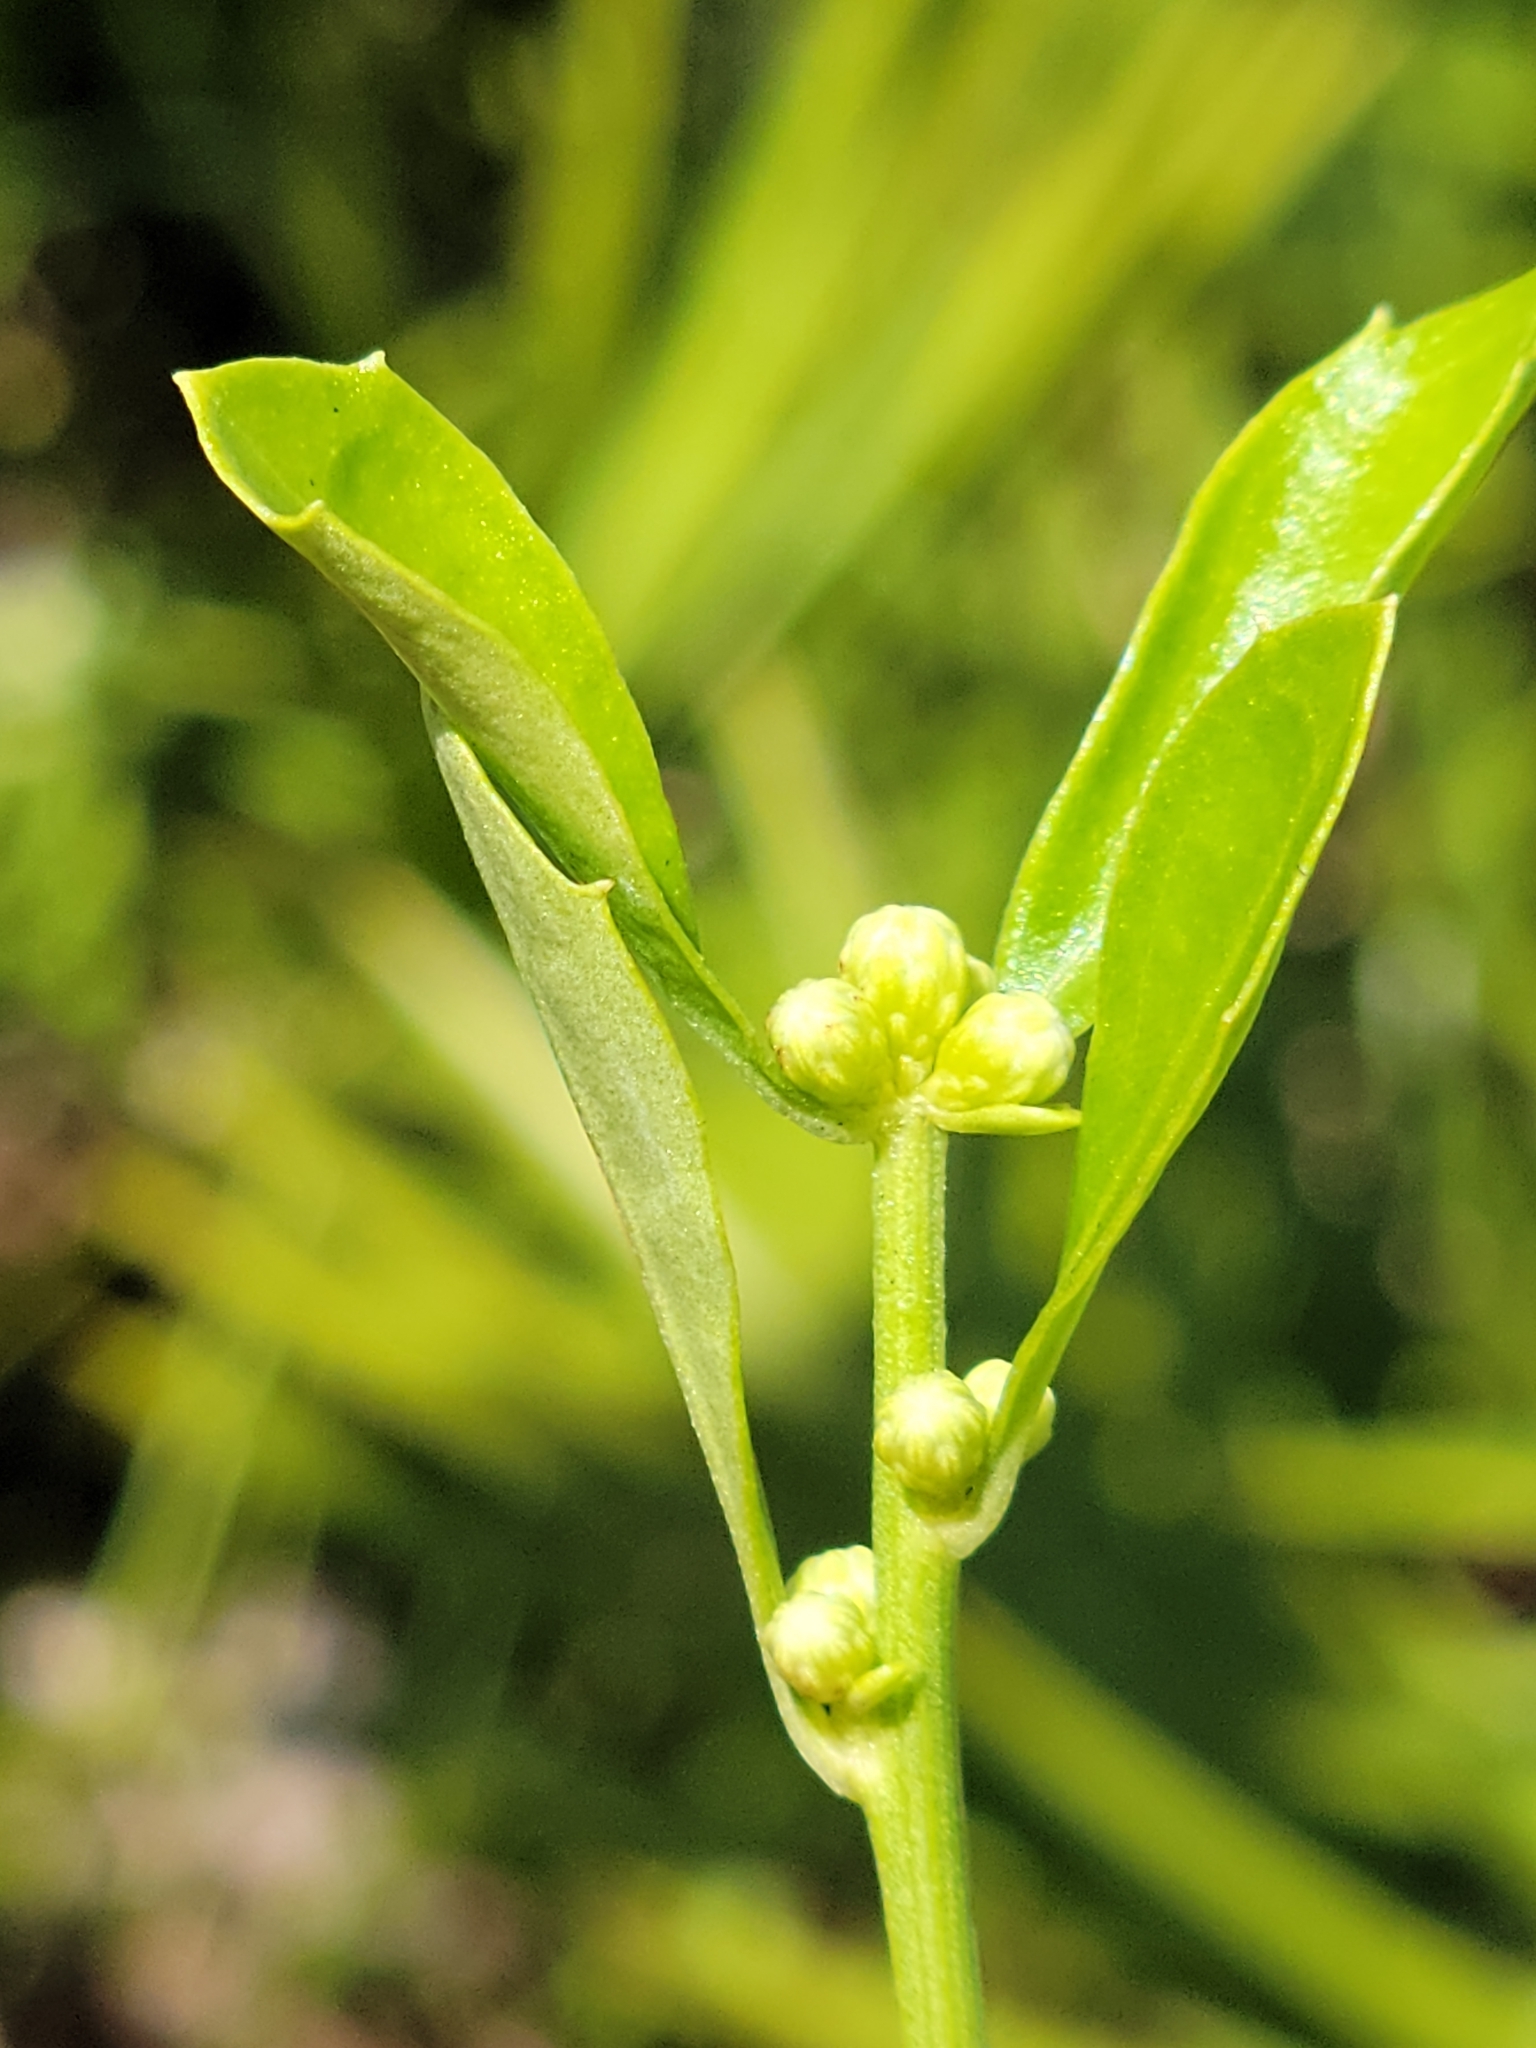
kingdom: Plantae
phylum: Tracheophyta
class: Magnoliopsida
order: Asterales
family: Asteraceae
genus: Baccharis
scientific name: Baccharis glomeruliflora
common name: Silverling groundsel bush
